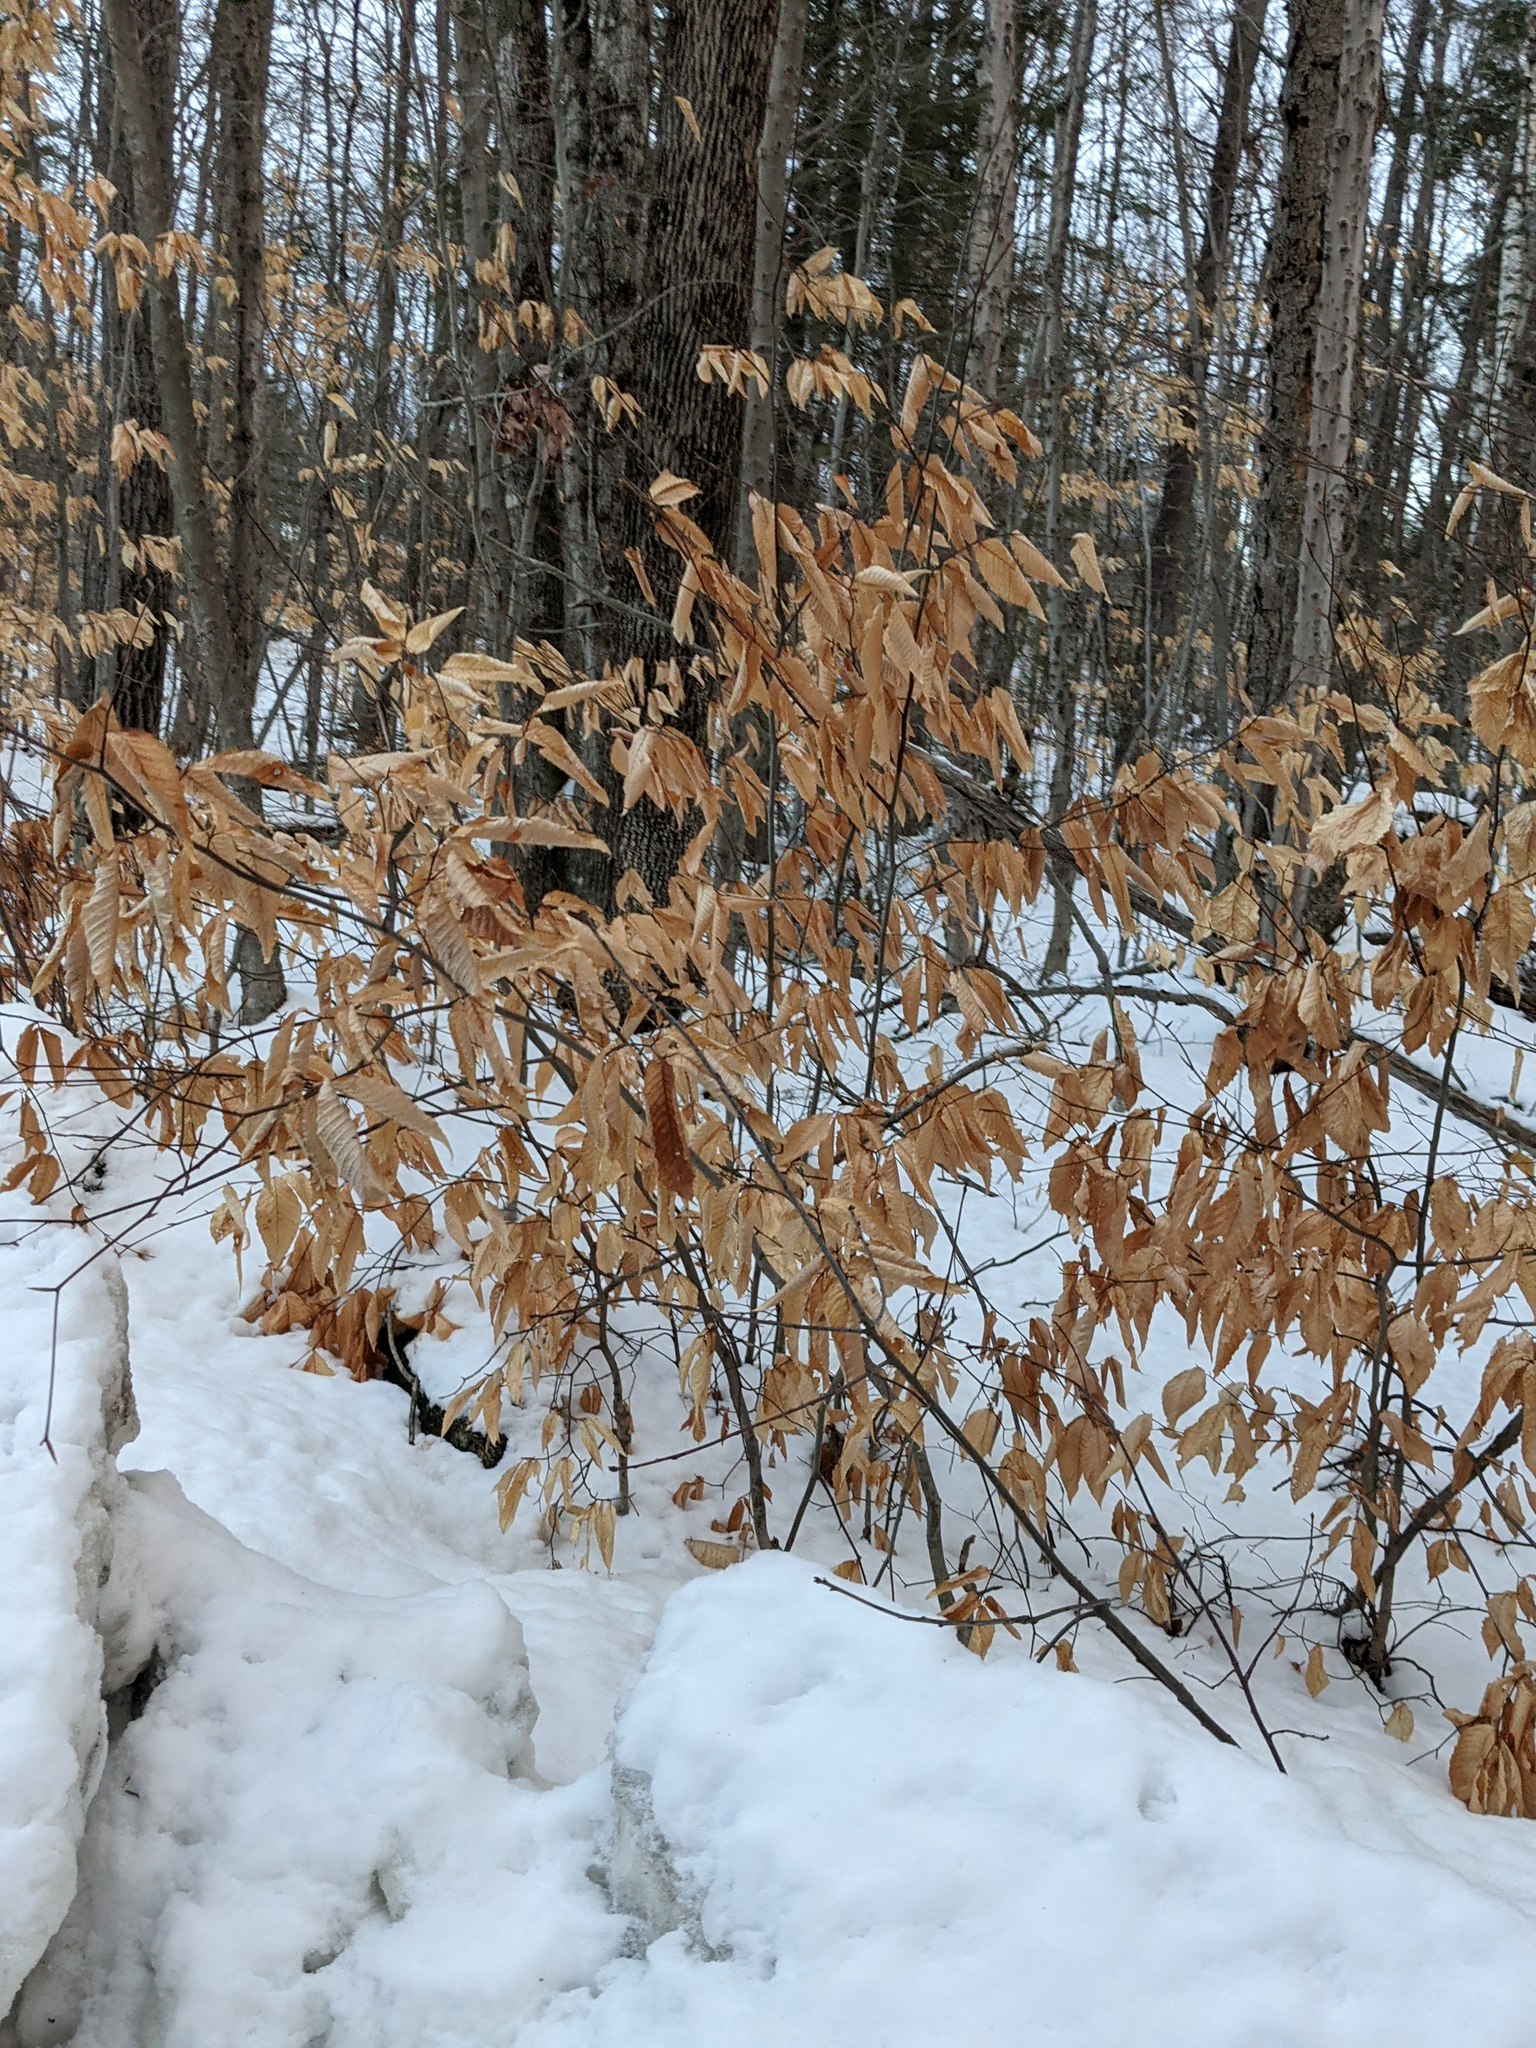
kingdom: Plantae
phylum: Tracheophyta
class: Magnoliopsida
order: Fagales
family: Fagaceae
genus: Fagus
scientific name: Fagus grandifolia
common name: American beech
